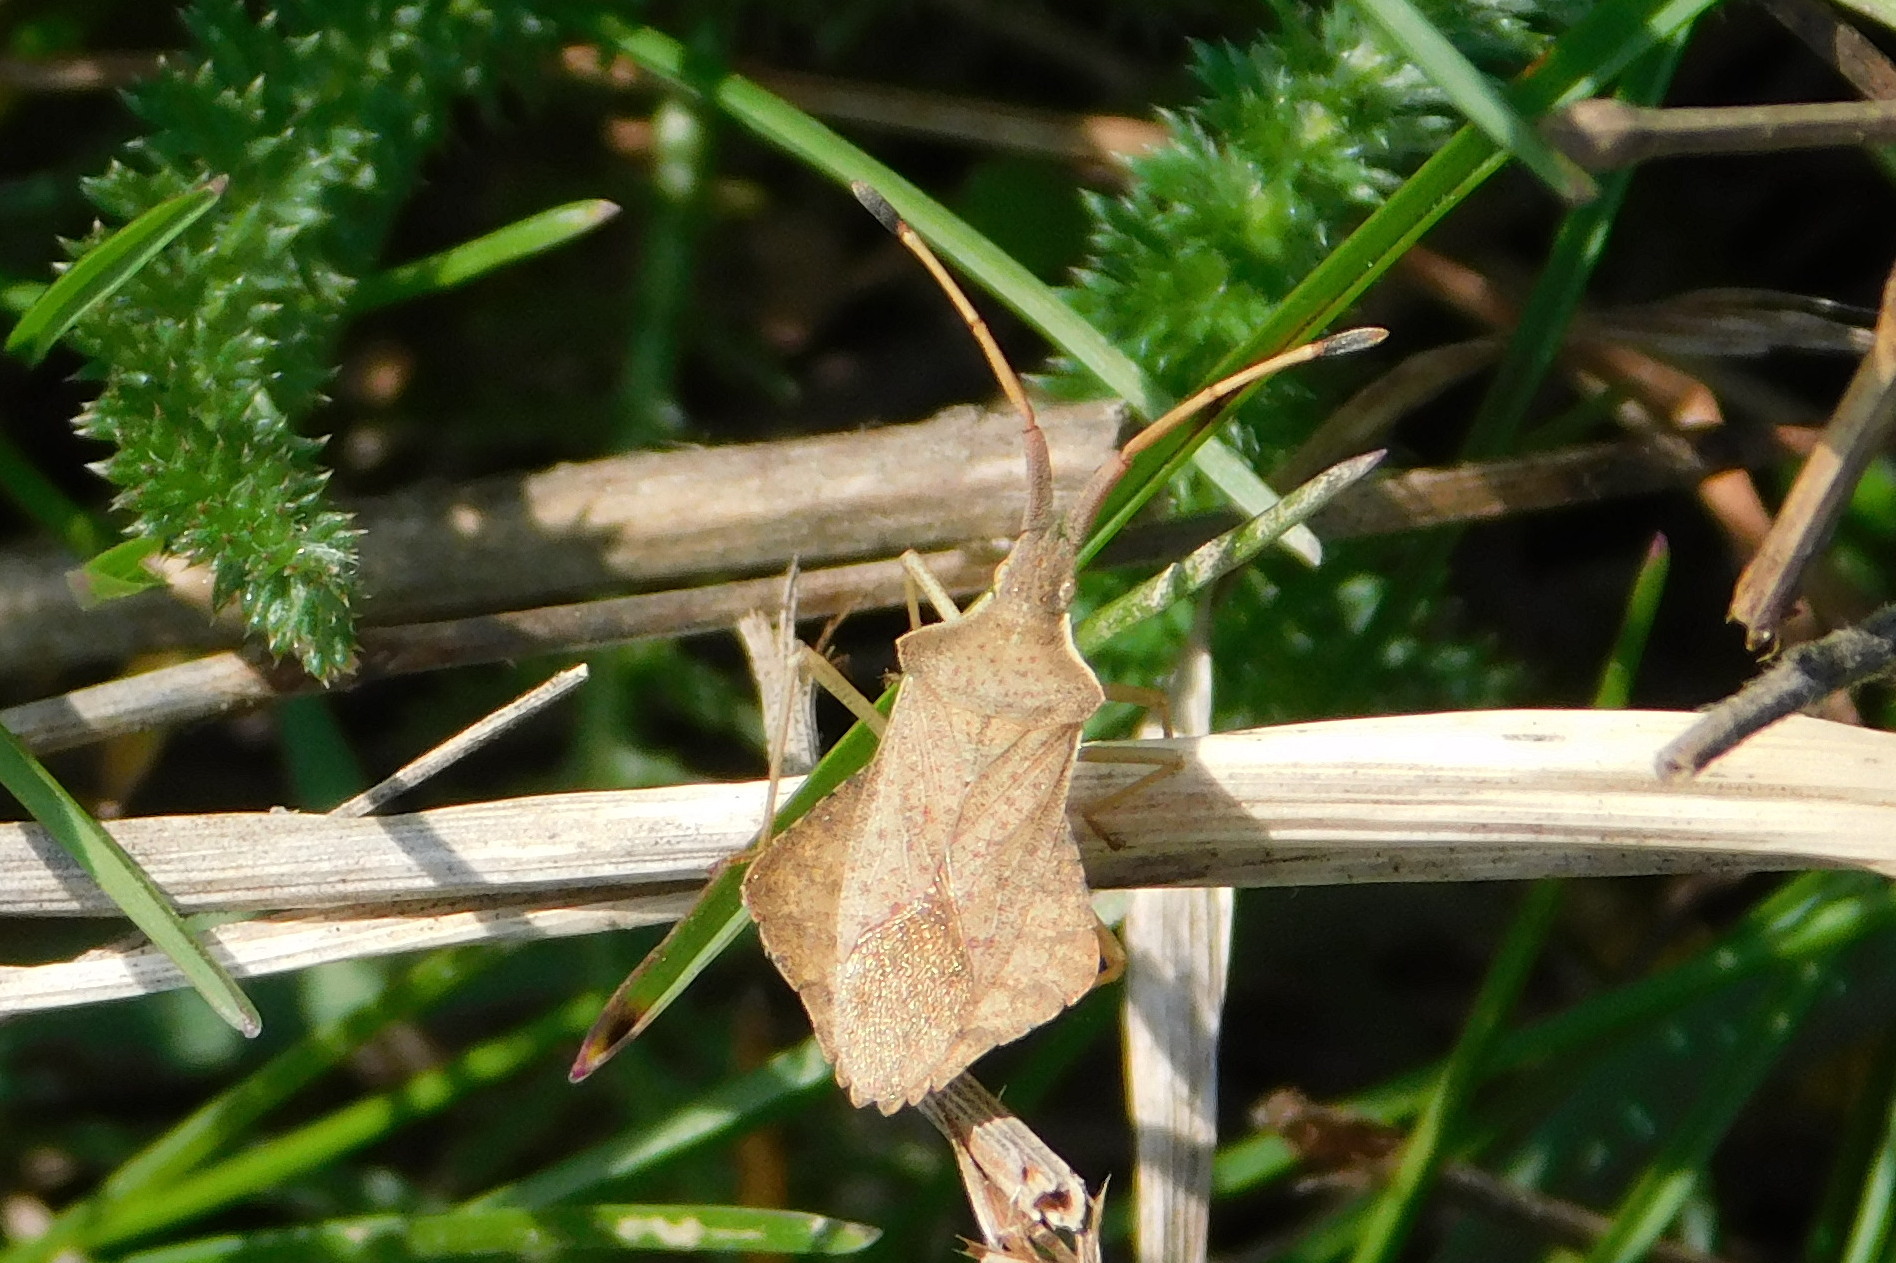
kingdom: Animalia
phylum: Arthropoda
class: Insecta
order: Hemiptera
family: Coreidae
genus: Syromastus
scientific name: Syromastus rhombeus
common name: Rhombic leatherbug
